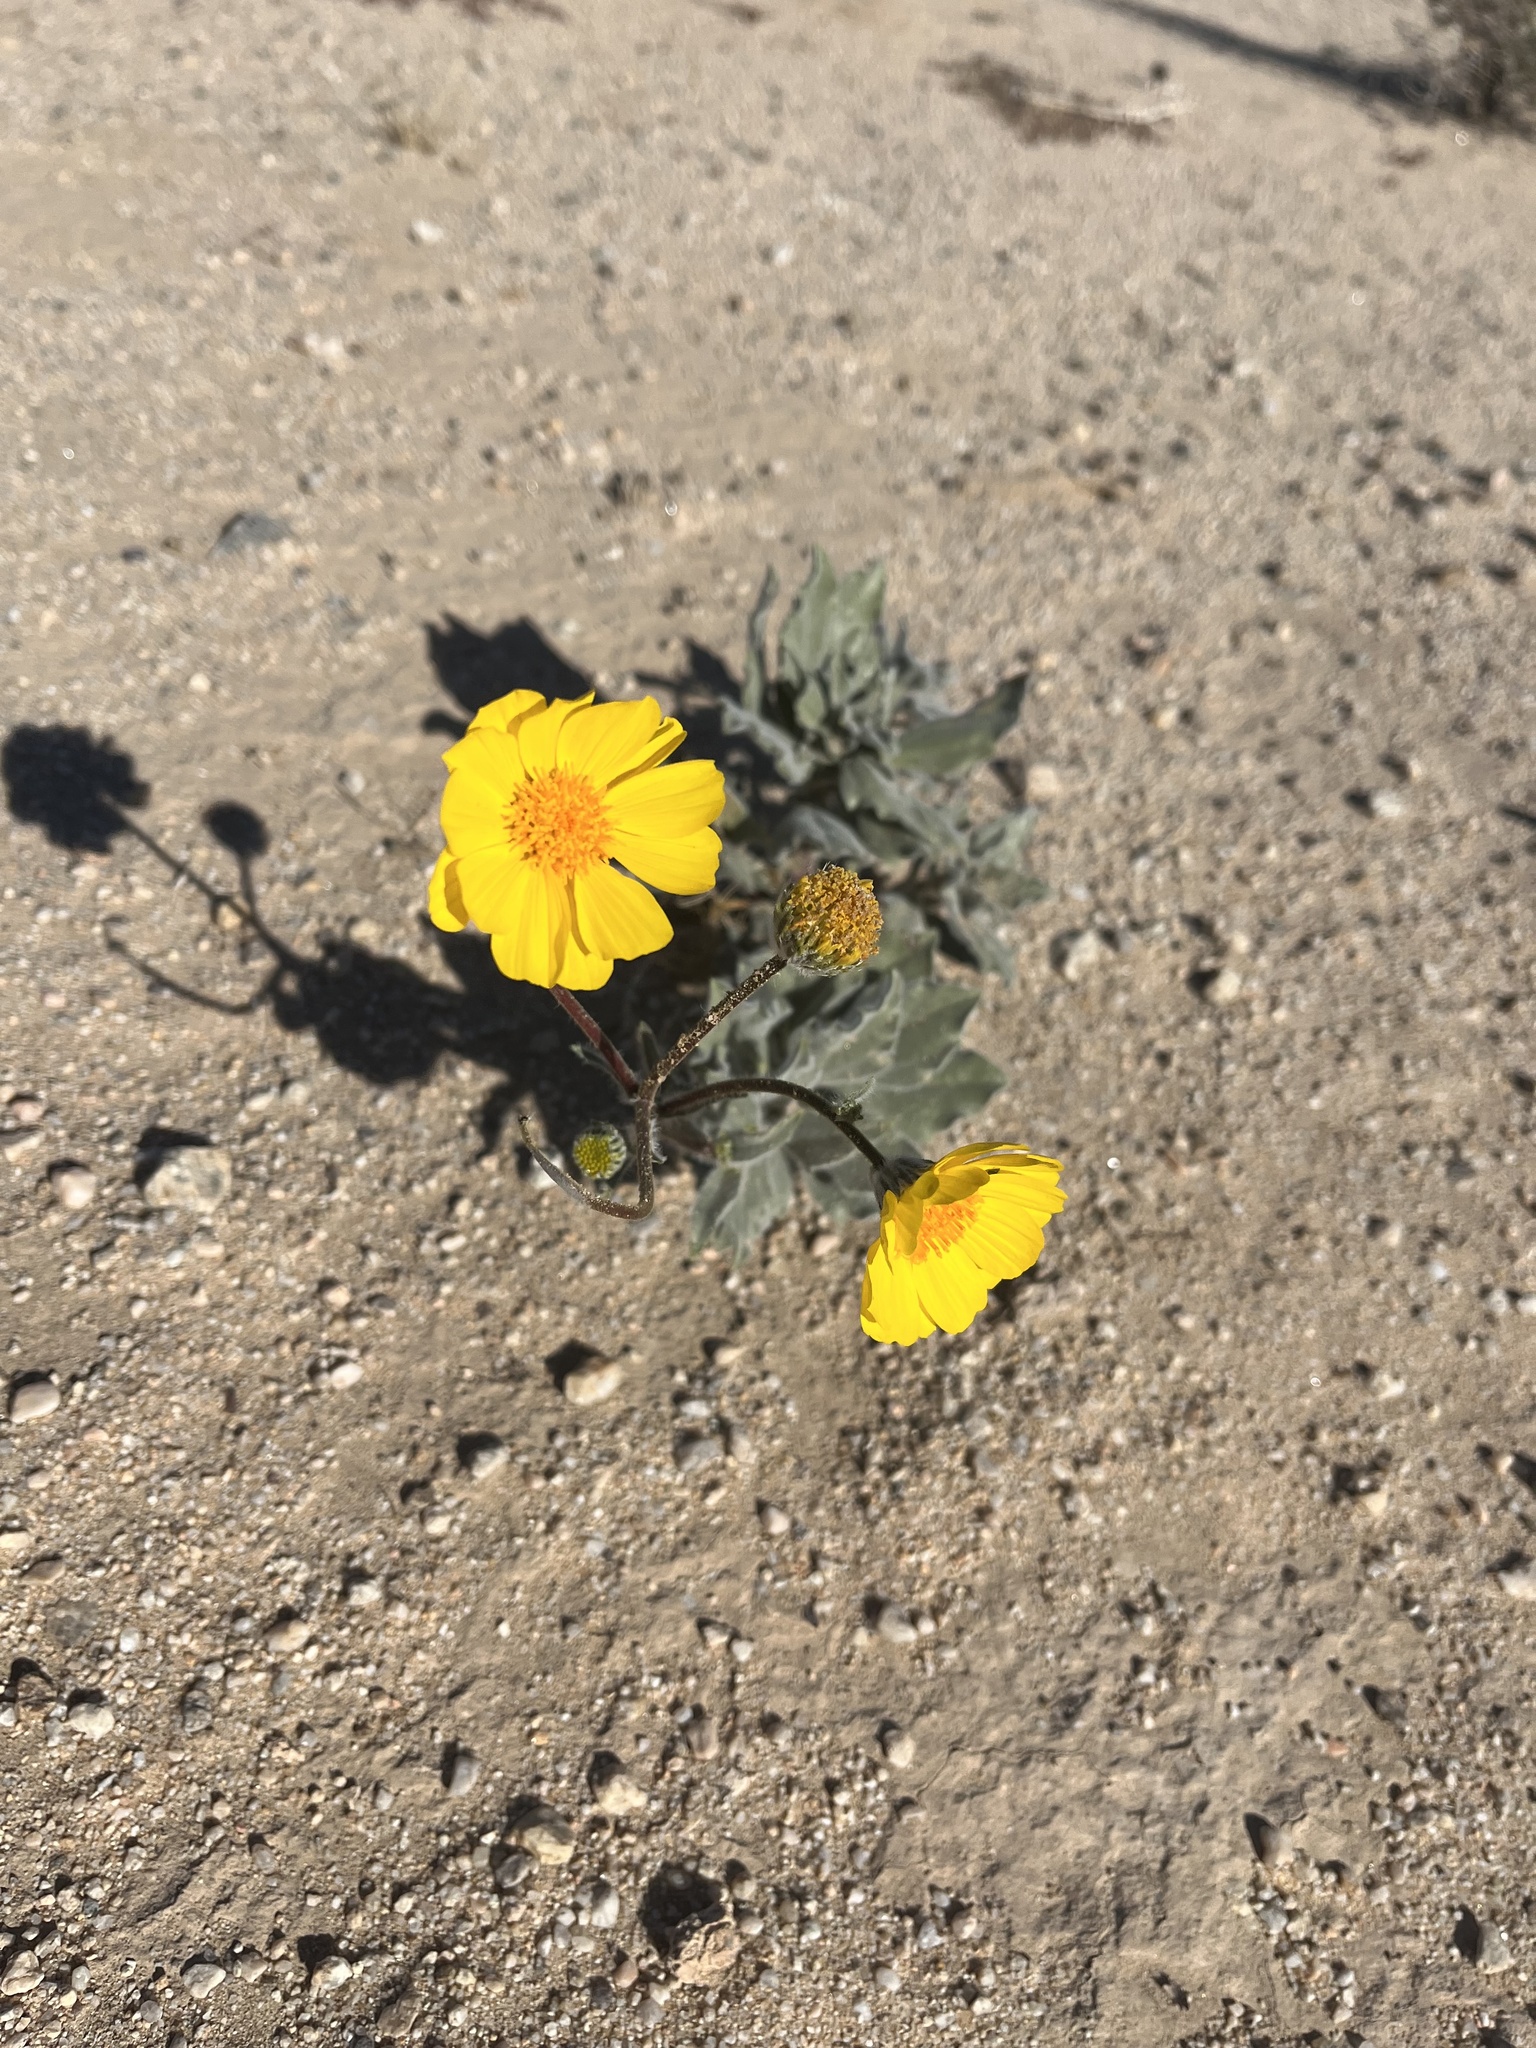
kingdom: Plantae
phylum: Tracheophyta
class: Magnoliopsida
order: Asterales
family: Asteraceae
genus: Geraea
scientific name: Geraea canescens
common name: Desert-gold
